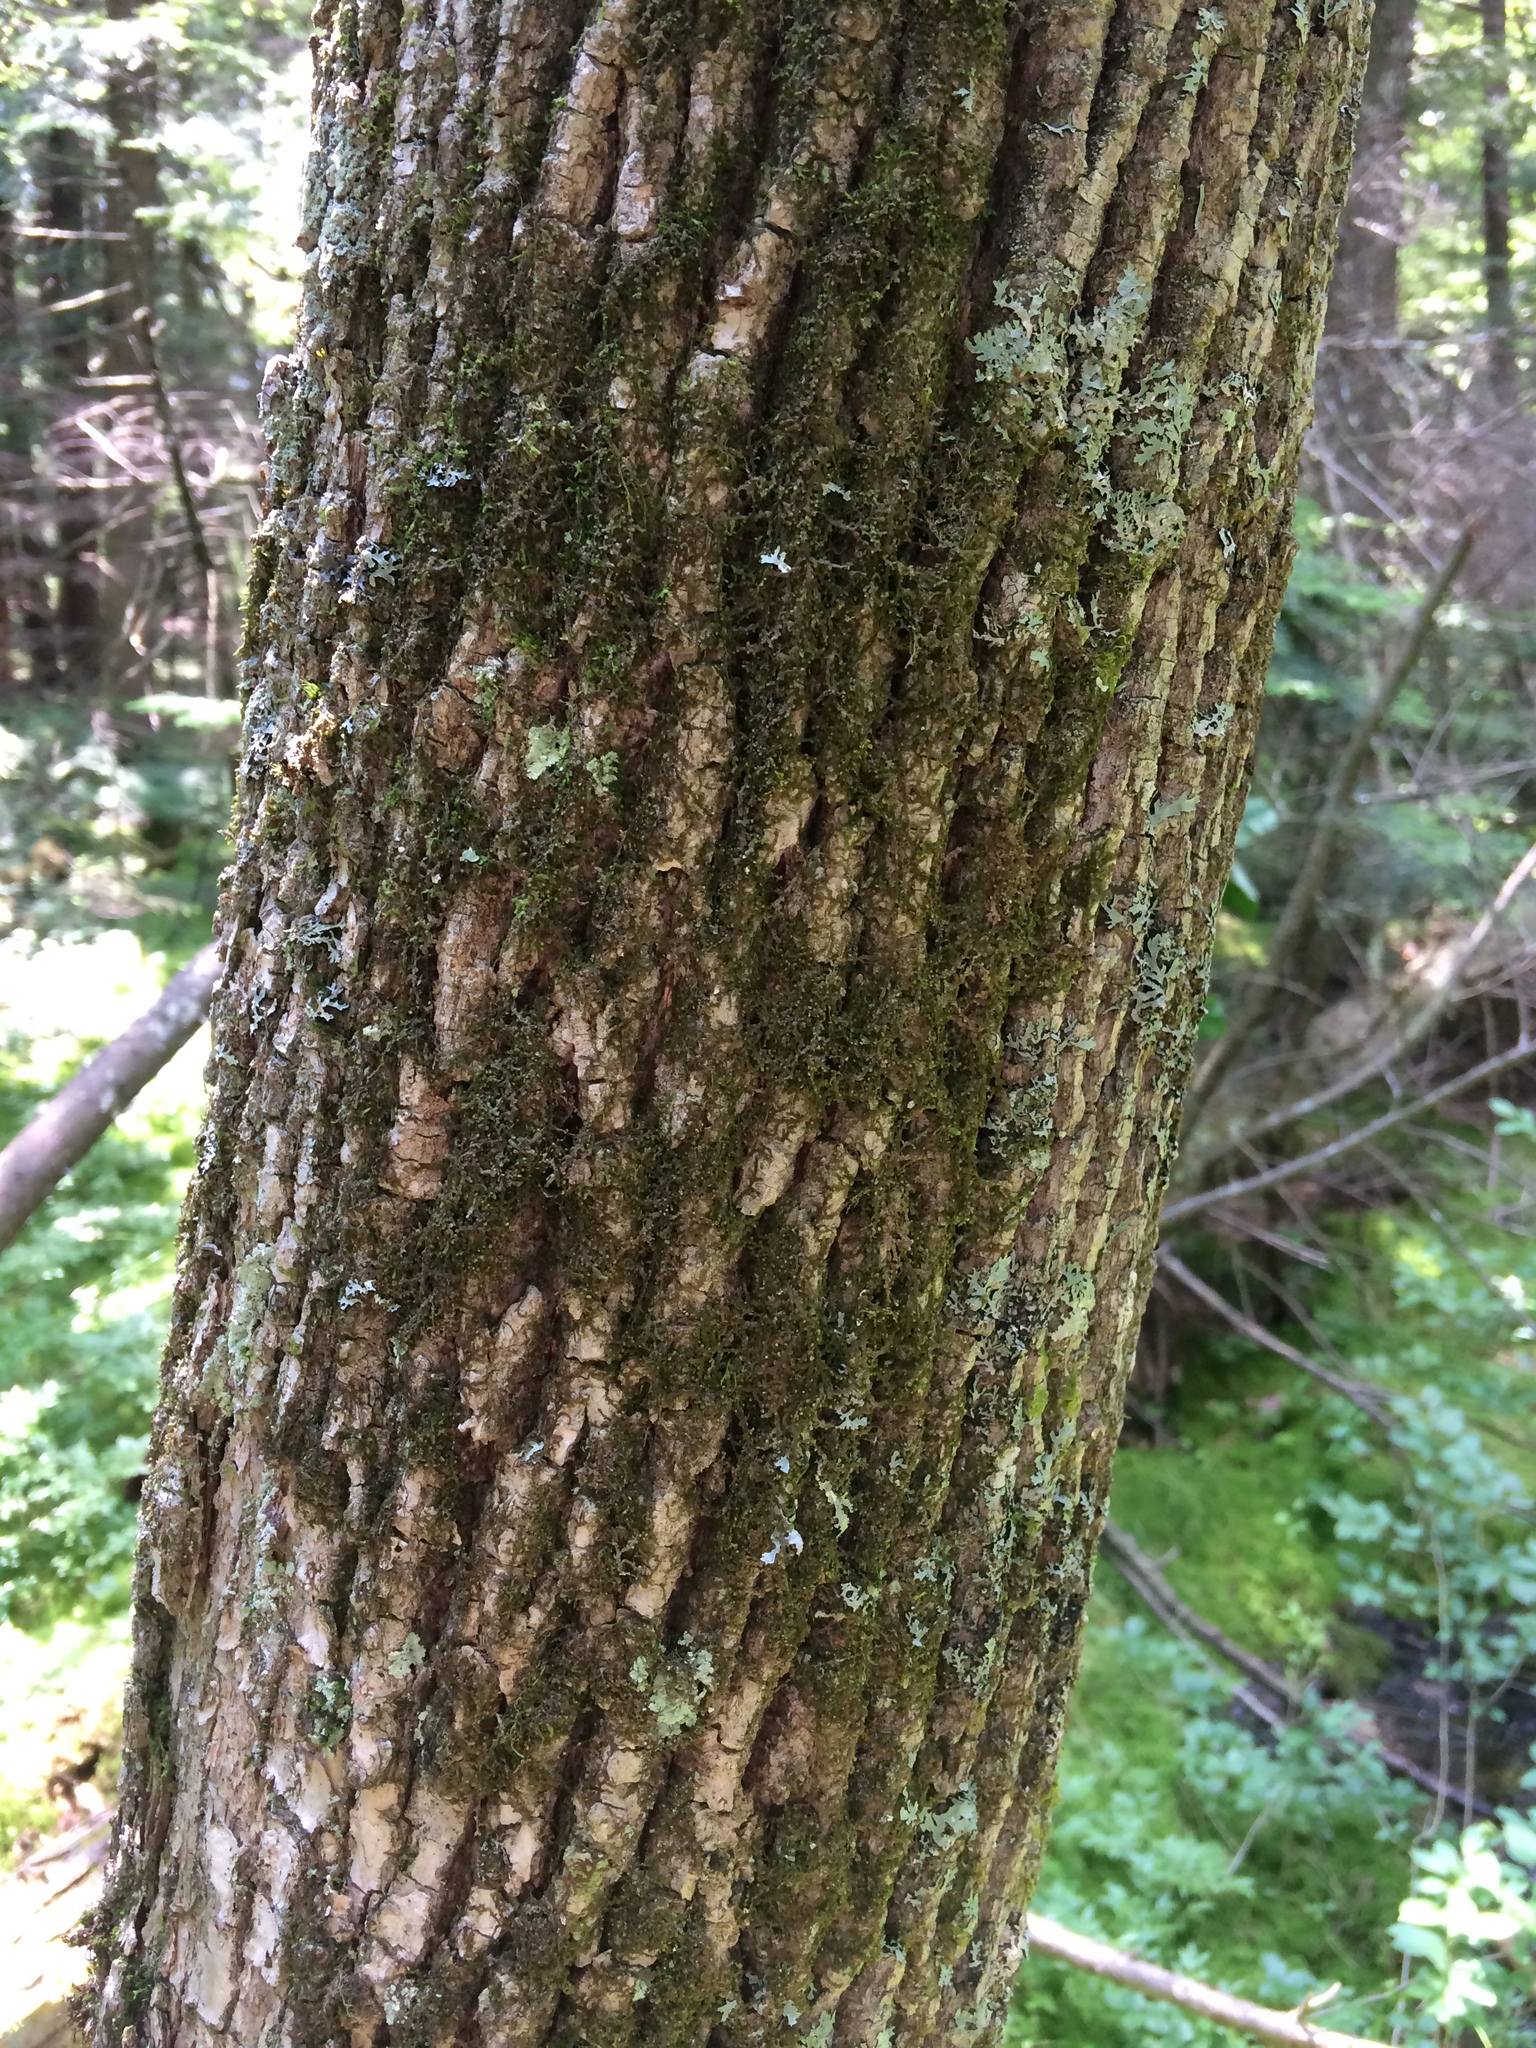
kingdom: Plantae
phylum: Tracheophyta
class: Magnoliopsida
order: Lamiales
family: Oleaceae
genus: Fraxinus
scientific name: Fraxinus pennsylvanica
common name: Green ash
